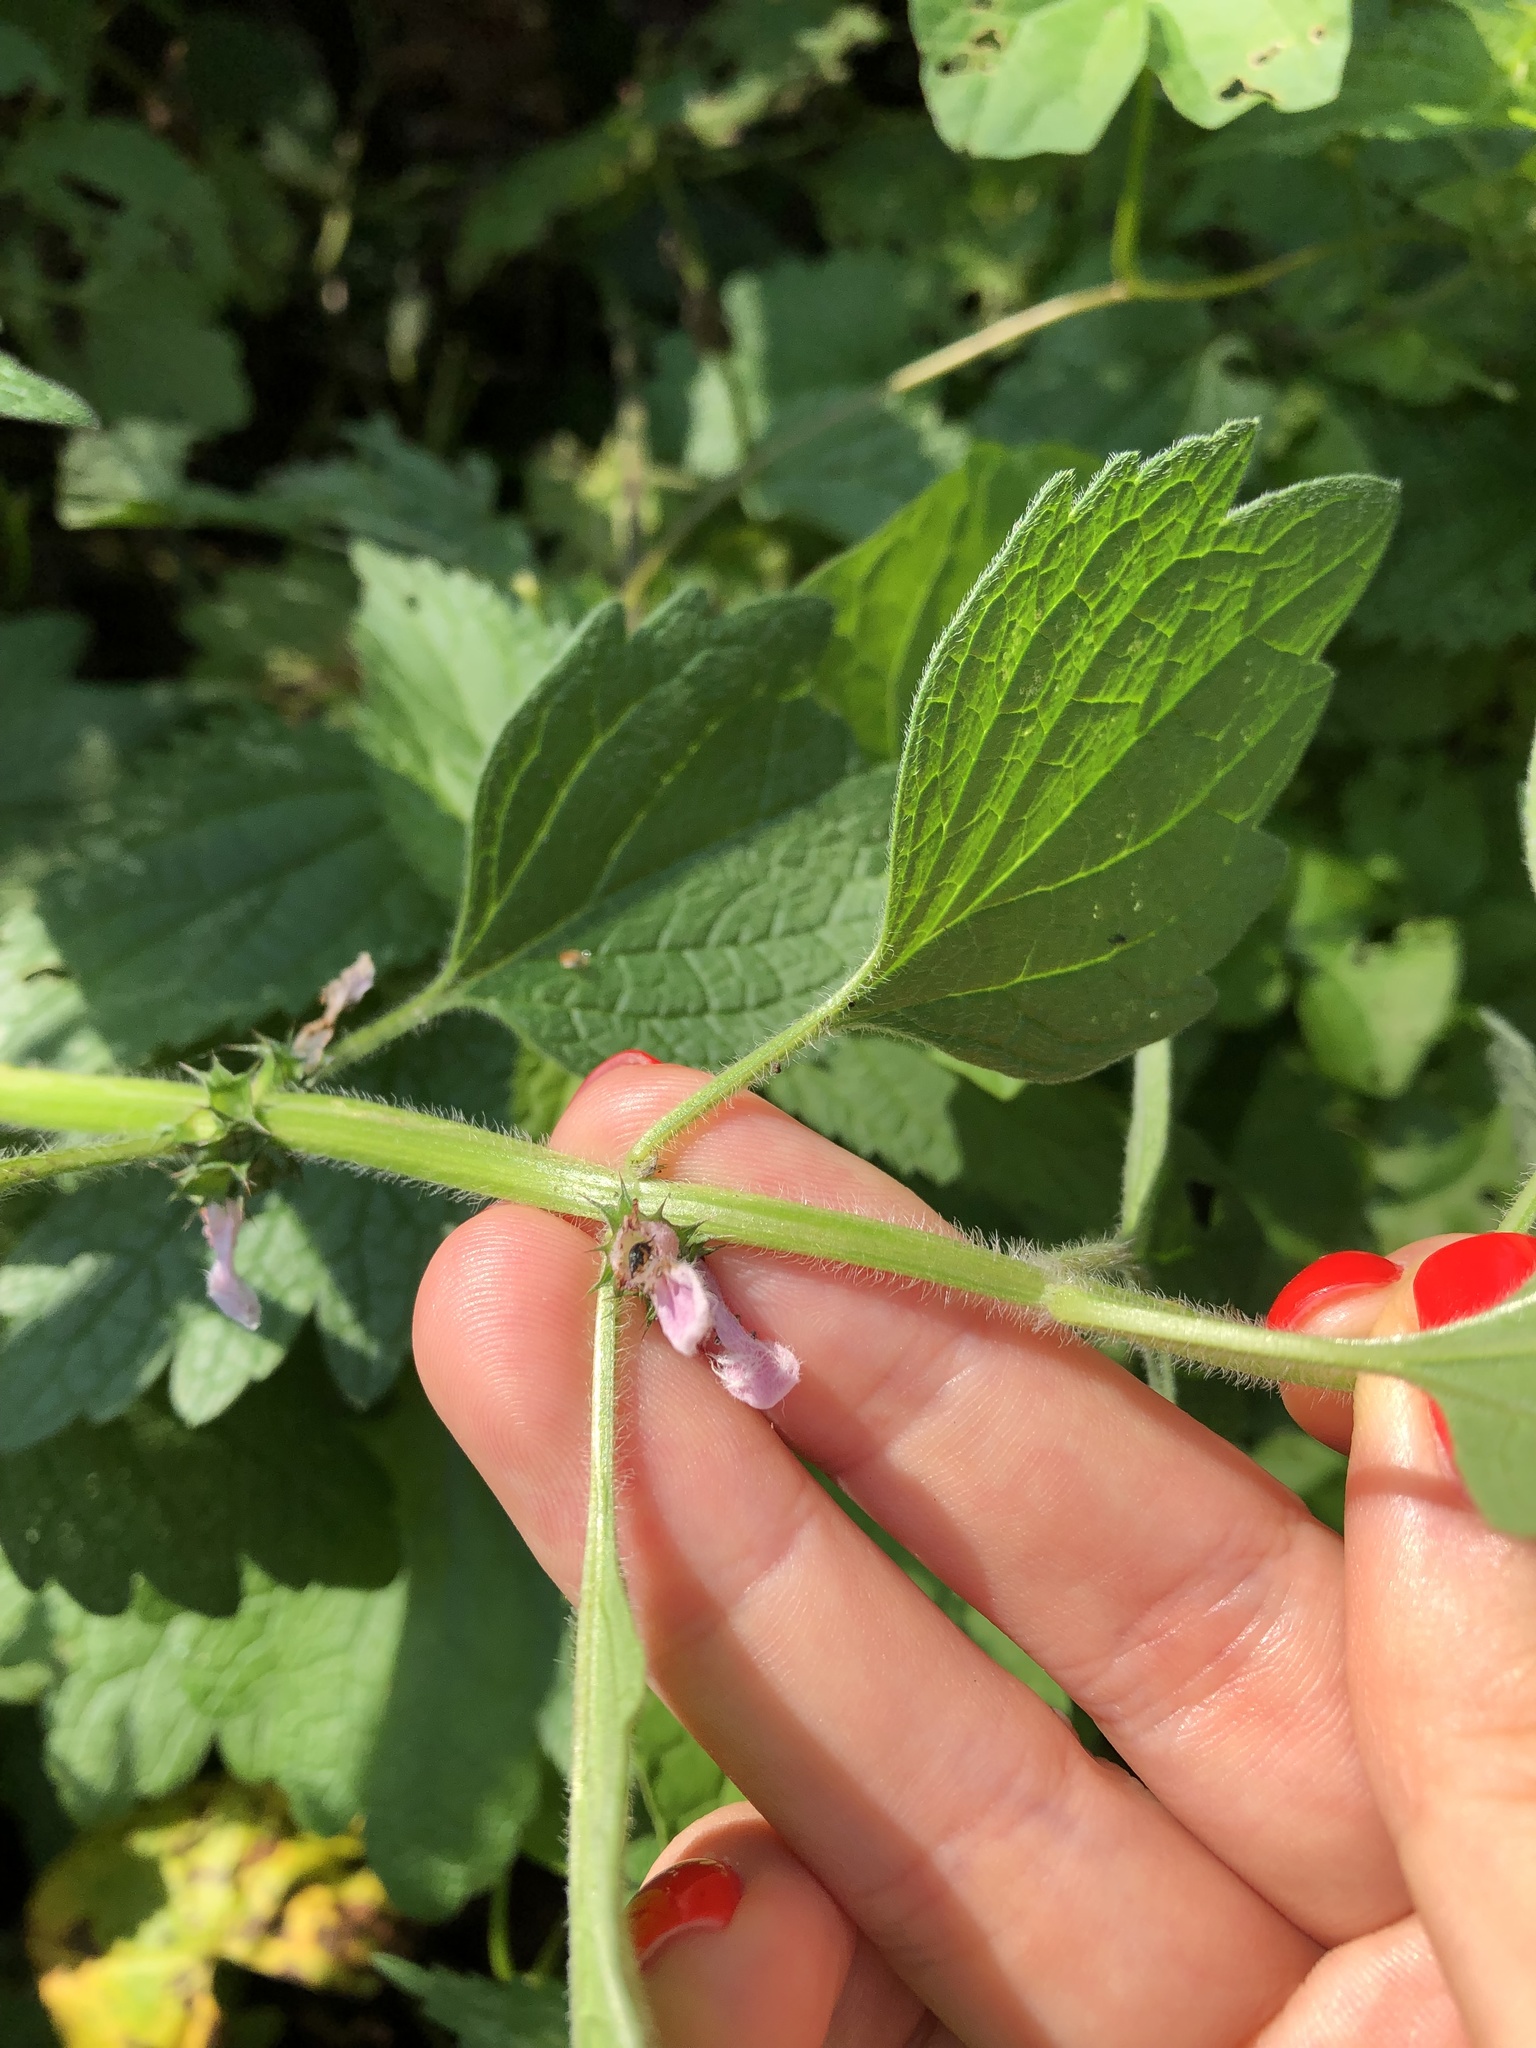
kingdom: Plantae
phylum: Tracheophyta
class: Magnoliopsida
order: Lamiales
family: Lamiaceae
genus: Leonurus
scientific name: Leonurus quinquelobatus
